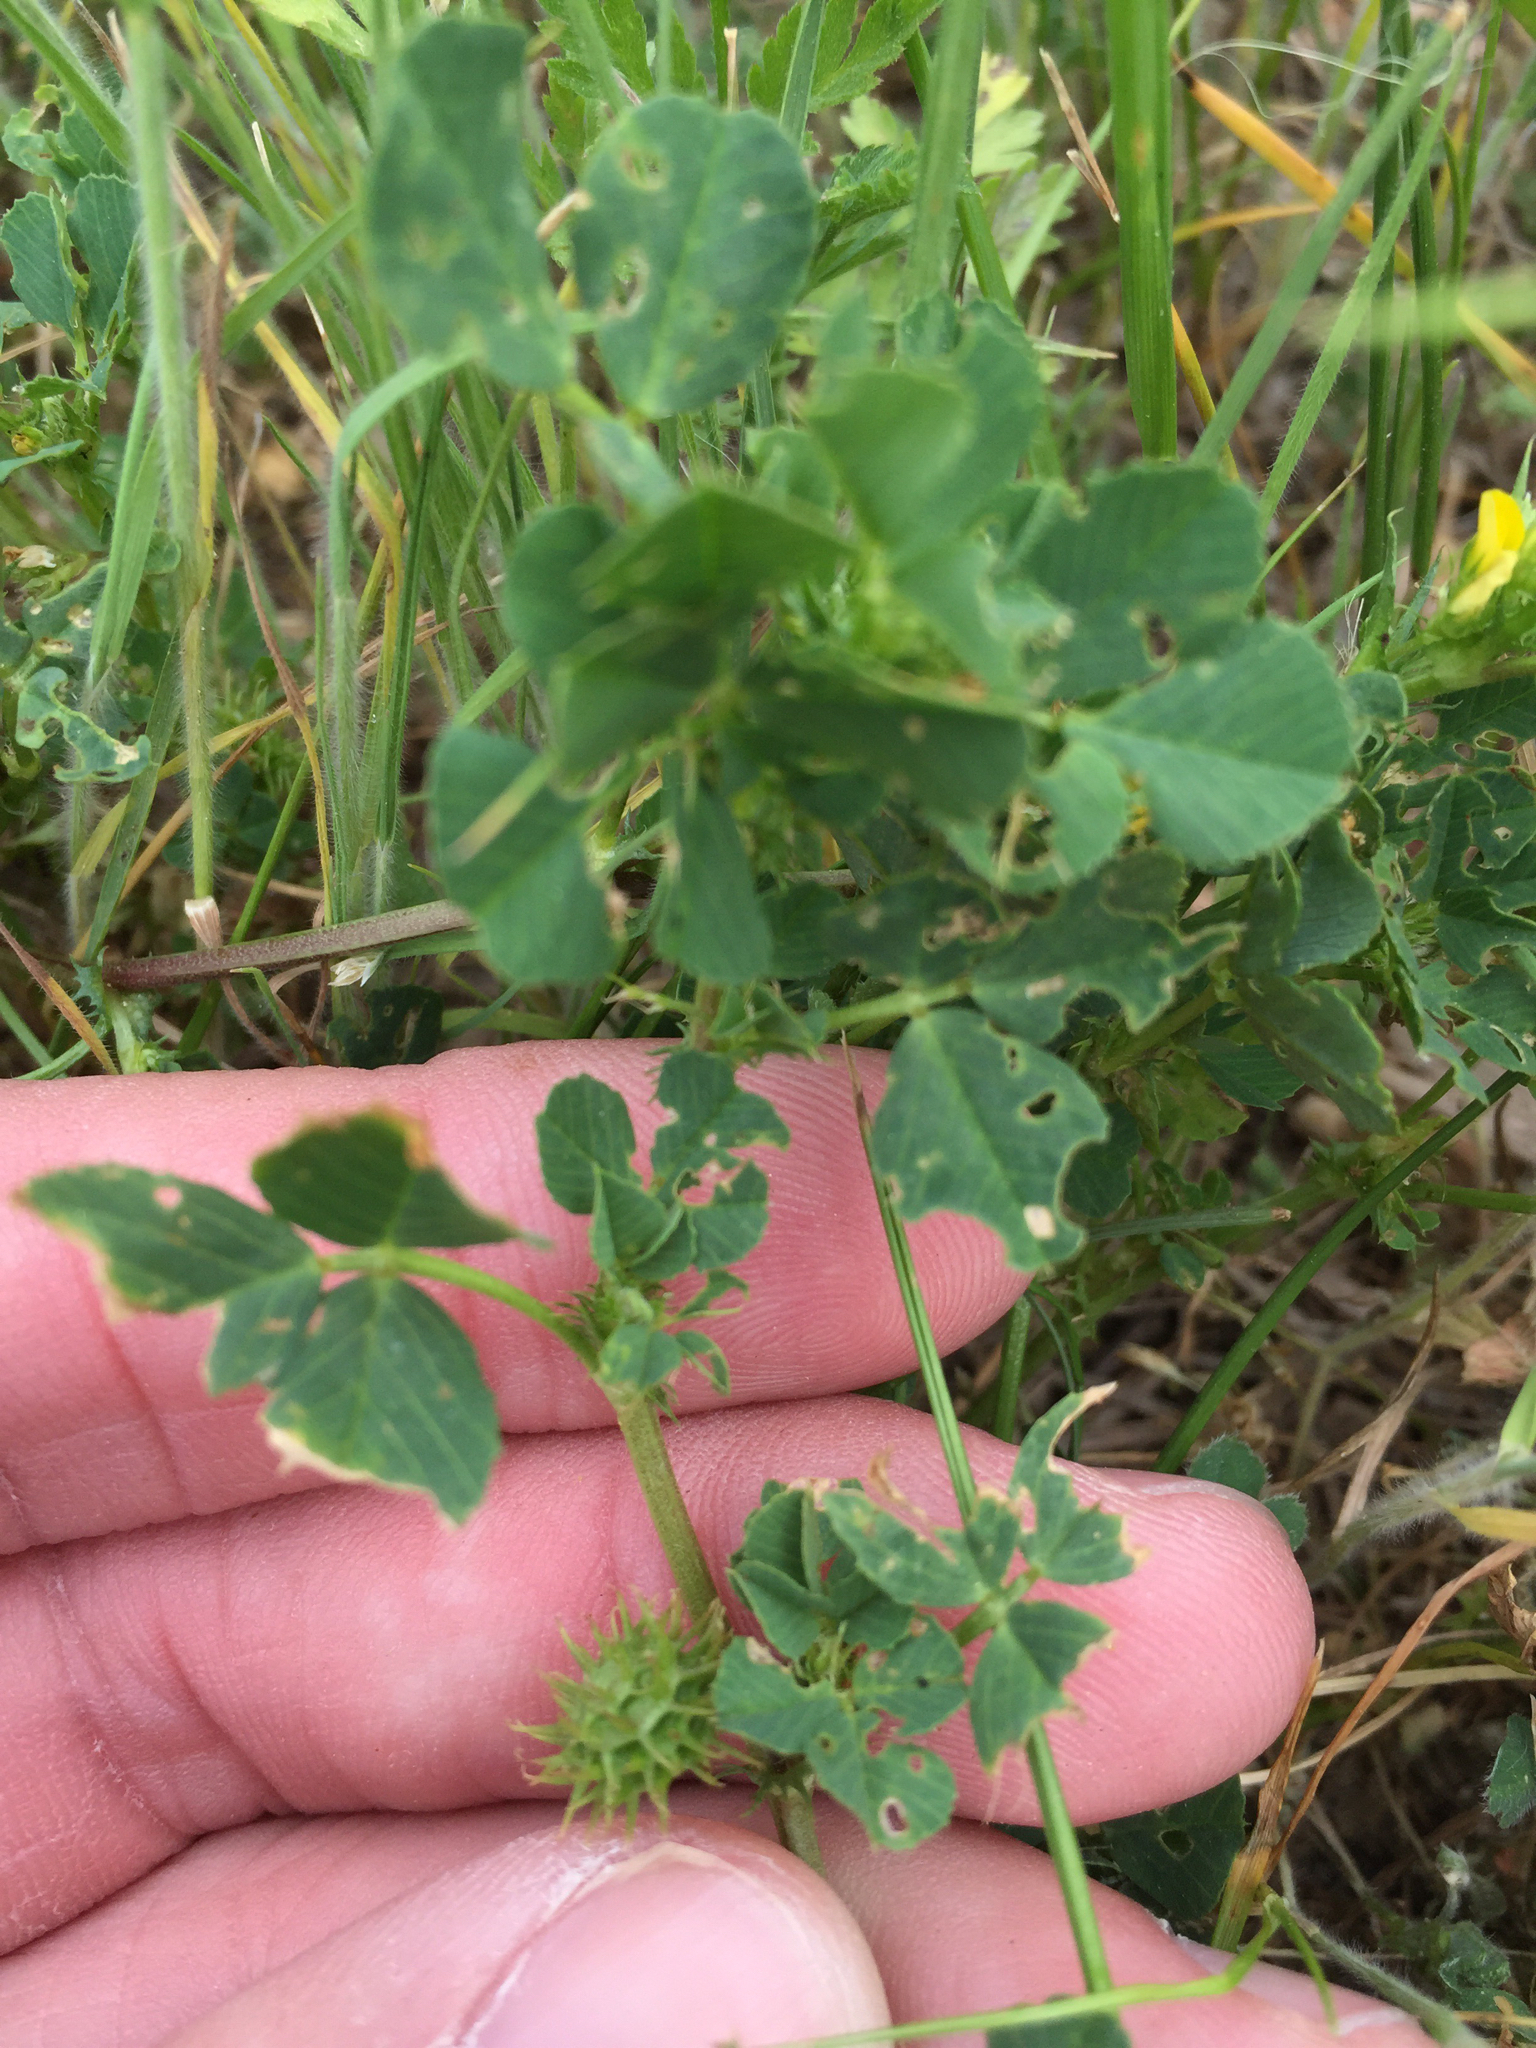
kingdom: Plantae
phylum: Tracheophyta
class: Magnoliopsida
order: Fabales
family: Fabaceae
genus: Medicago
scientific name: Medicago polymorpha
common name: Burclover
